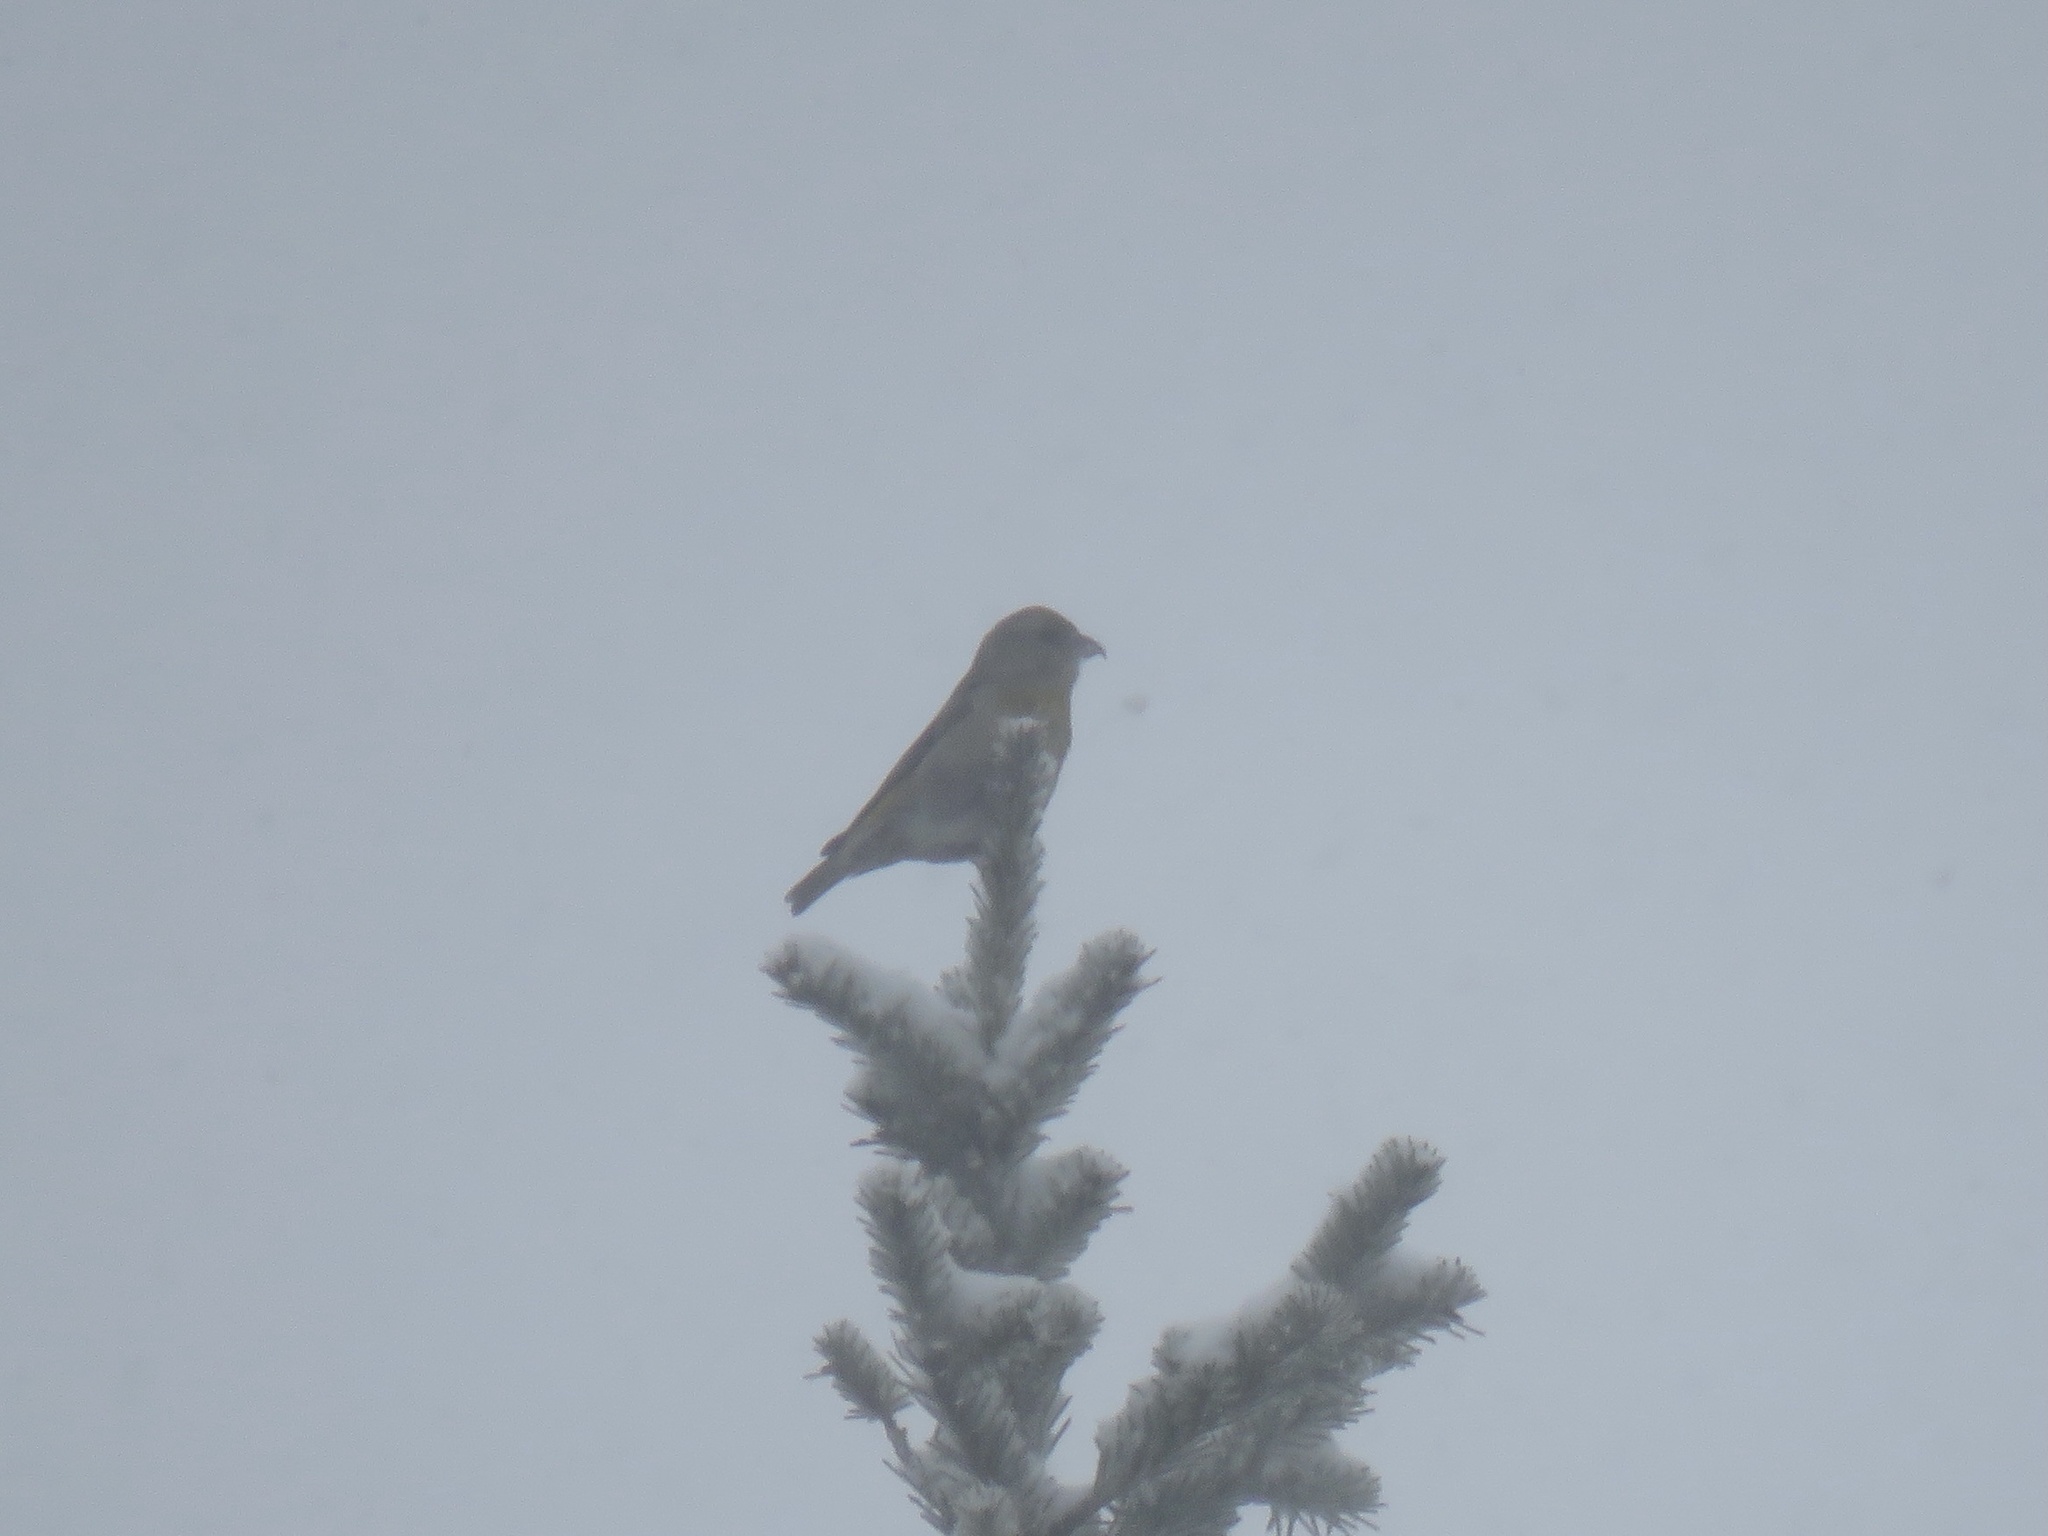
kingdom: Animalia
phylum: Chordata
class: Aves
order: Passeriformes
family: Fringillidae
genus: Loxia
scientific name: Loxia curvirostra
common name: Red crossbill
